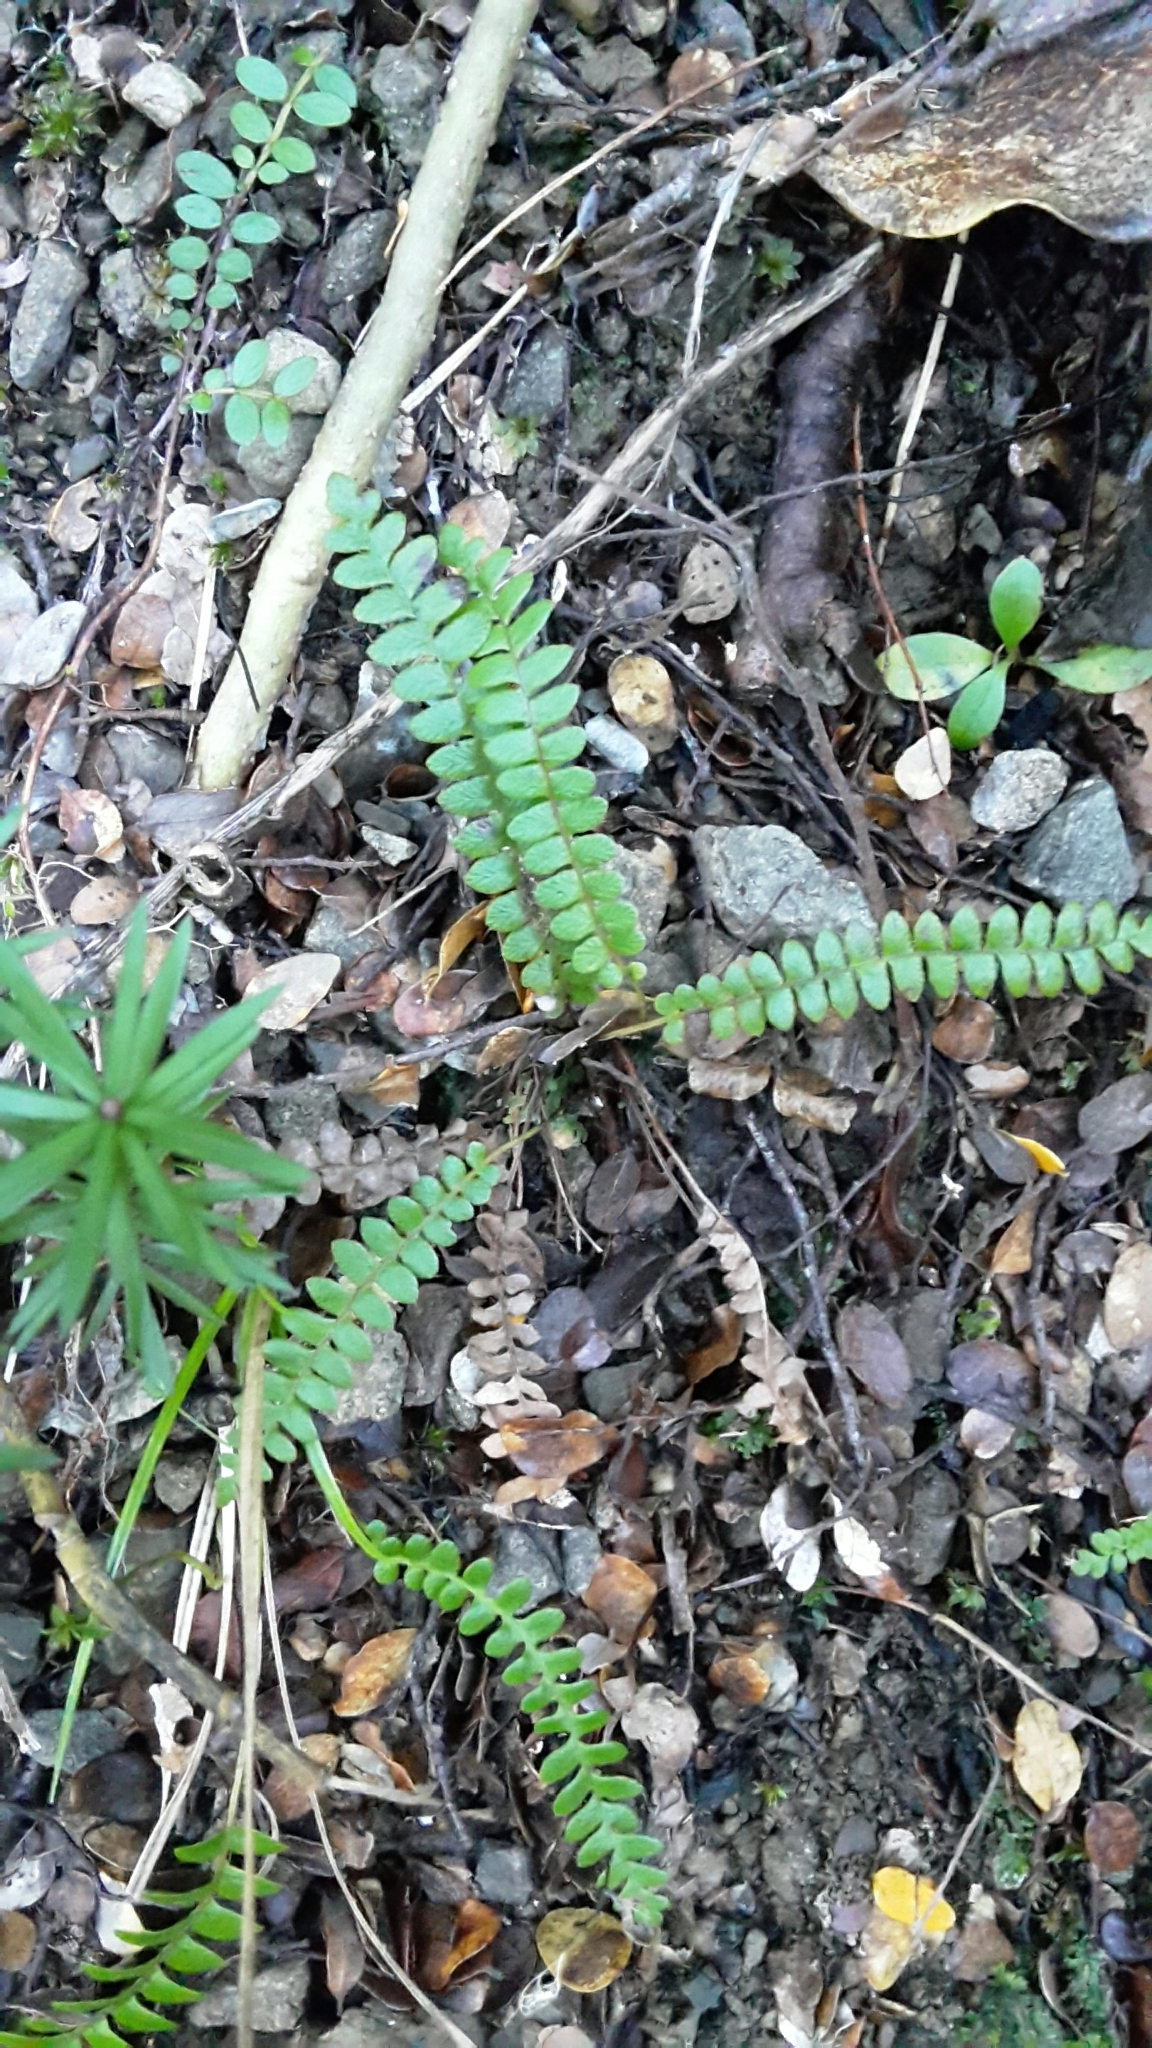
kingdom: Plantae
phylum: Tracheophyta
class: Polypodiopsida
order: Polypodiales
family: Blechnaceae
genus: Austroblechnum
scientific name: Austroblechnum penna-marina
